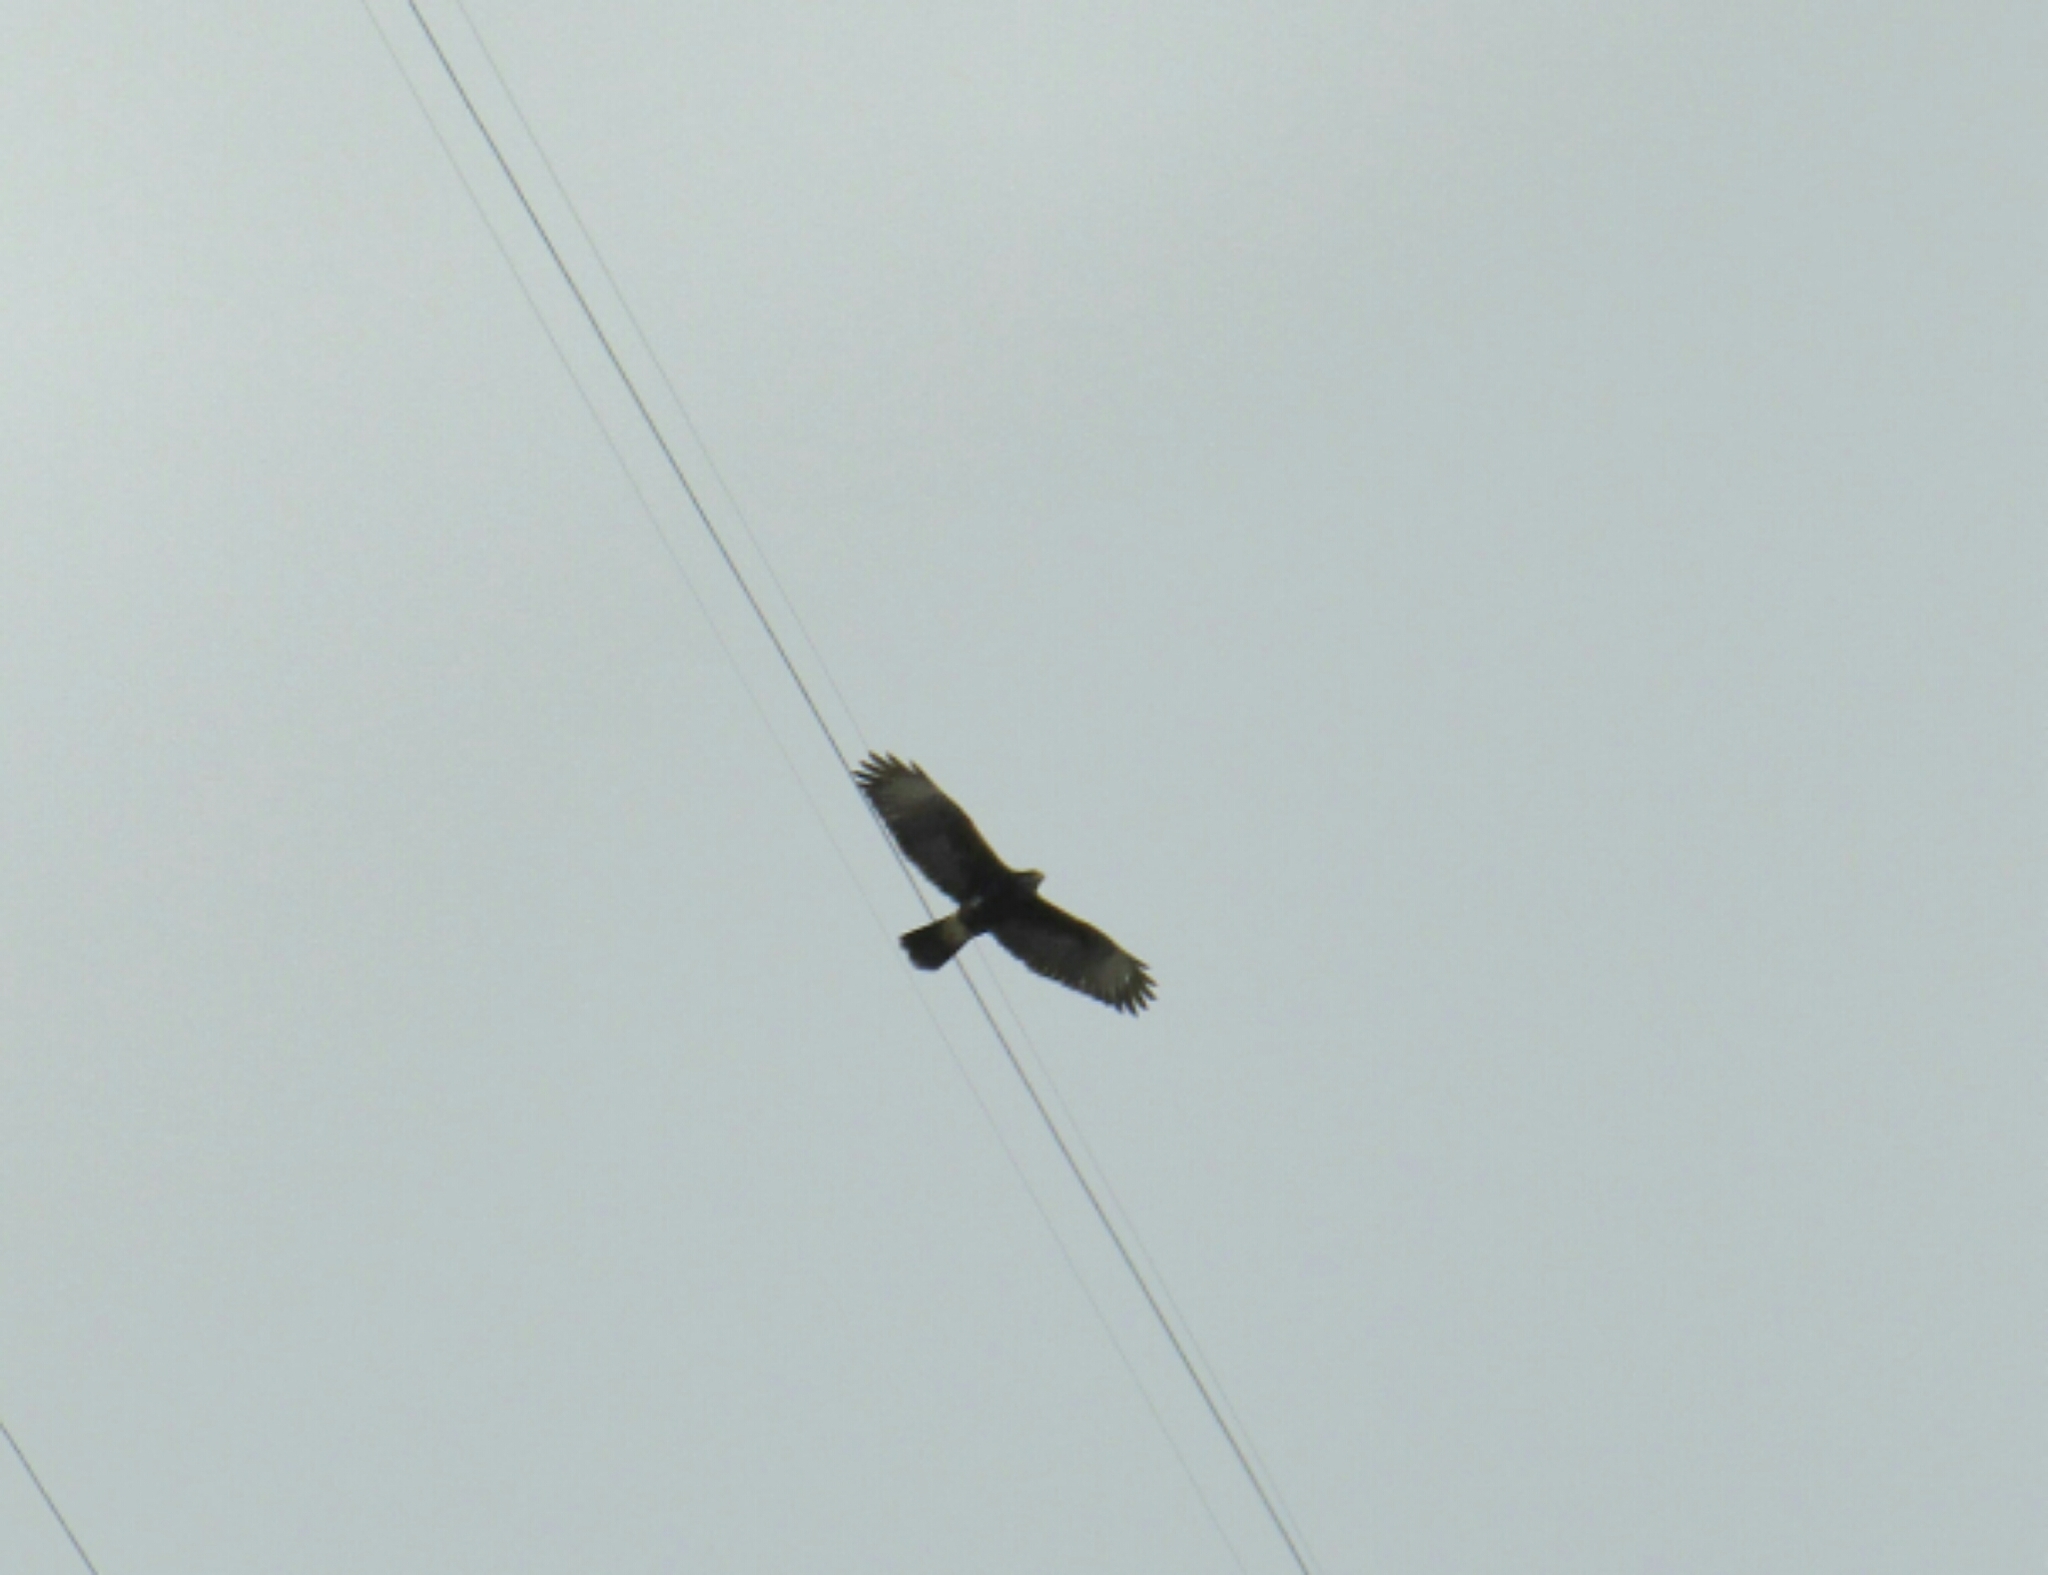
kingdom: Animalia
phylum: Chordata
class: Aves
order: Accipitriformes
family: Accipitridae
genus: Parabuteo
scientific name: Parabuteo unicinctus
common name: Harris's hawk
